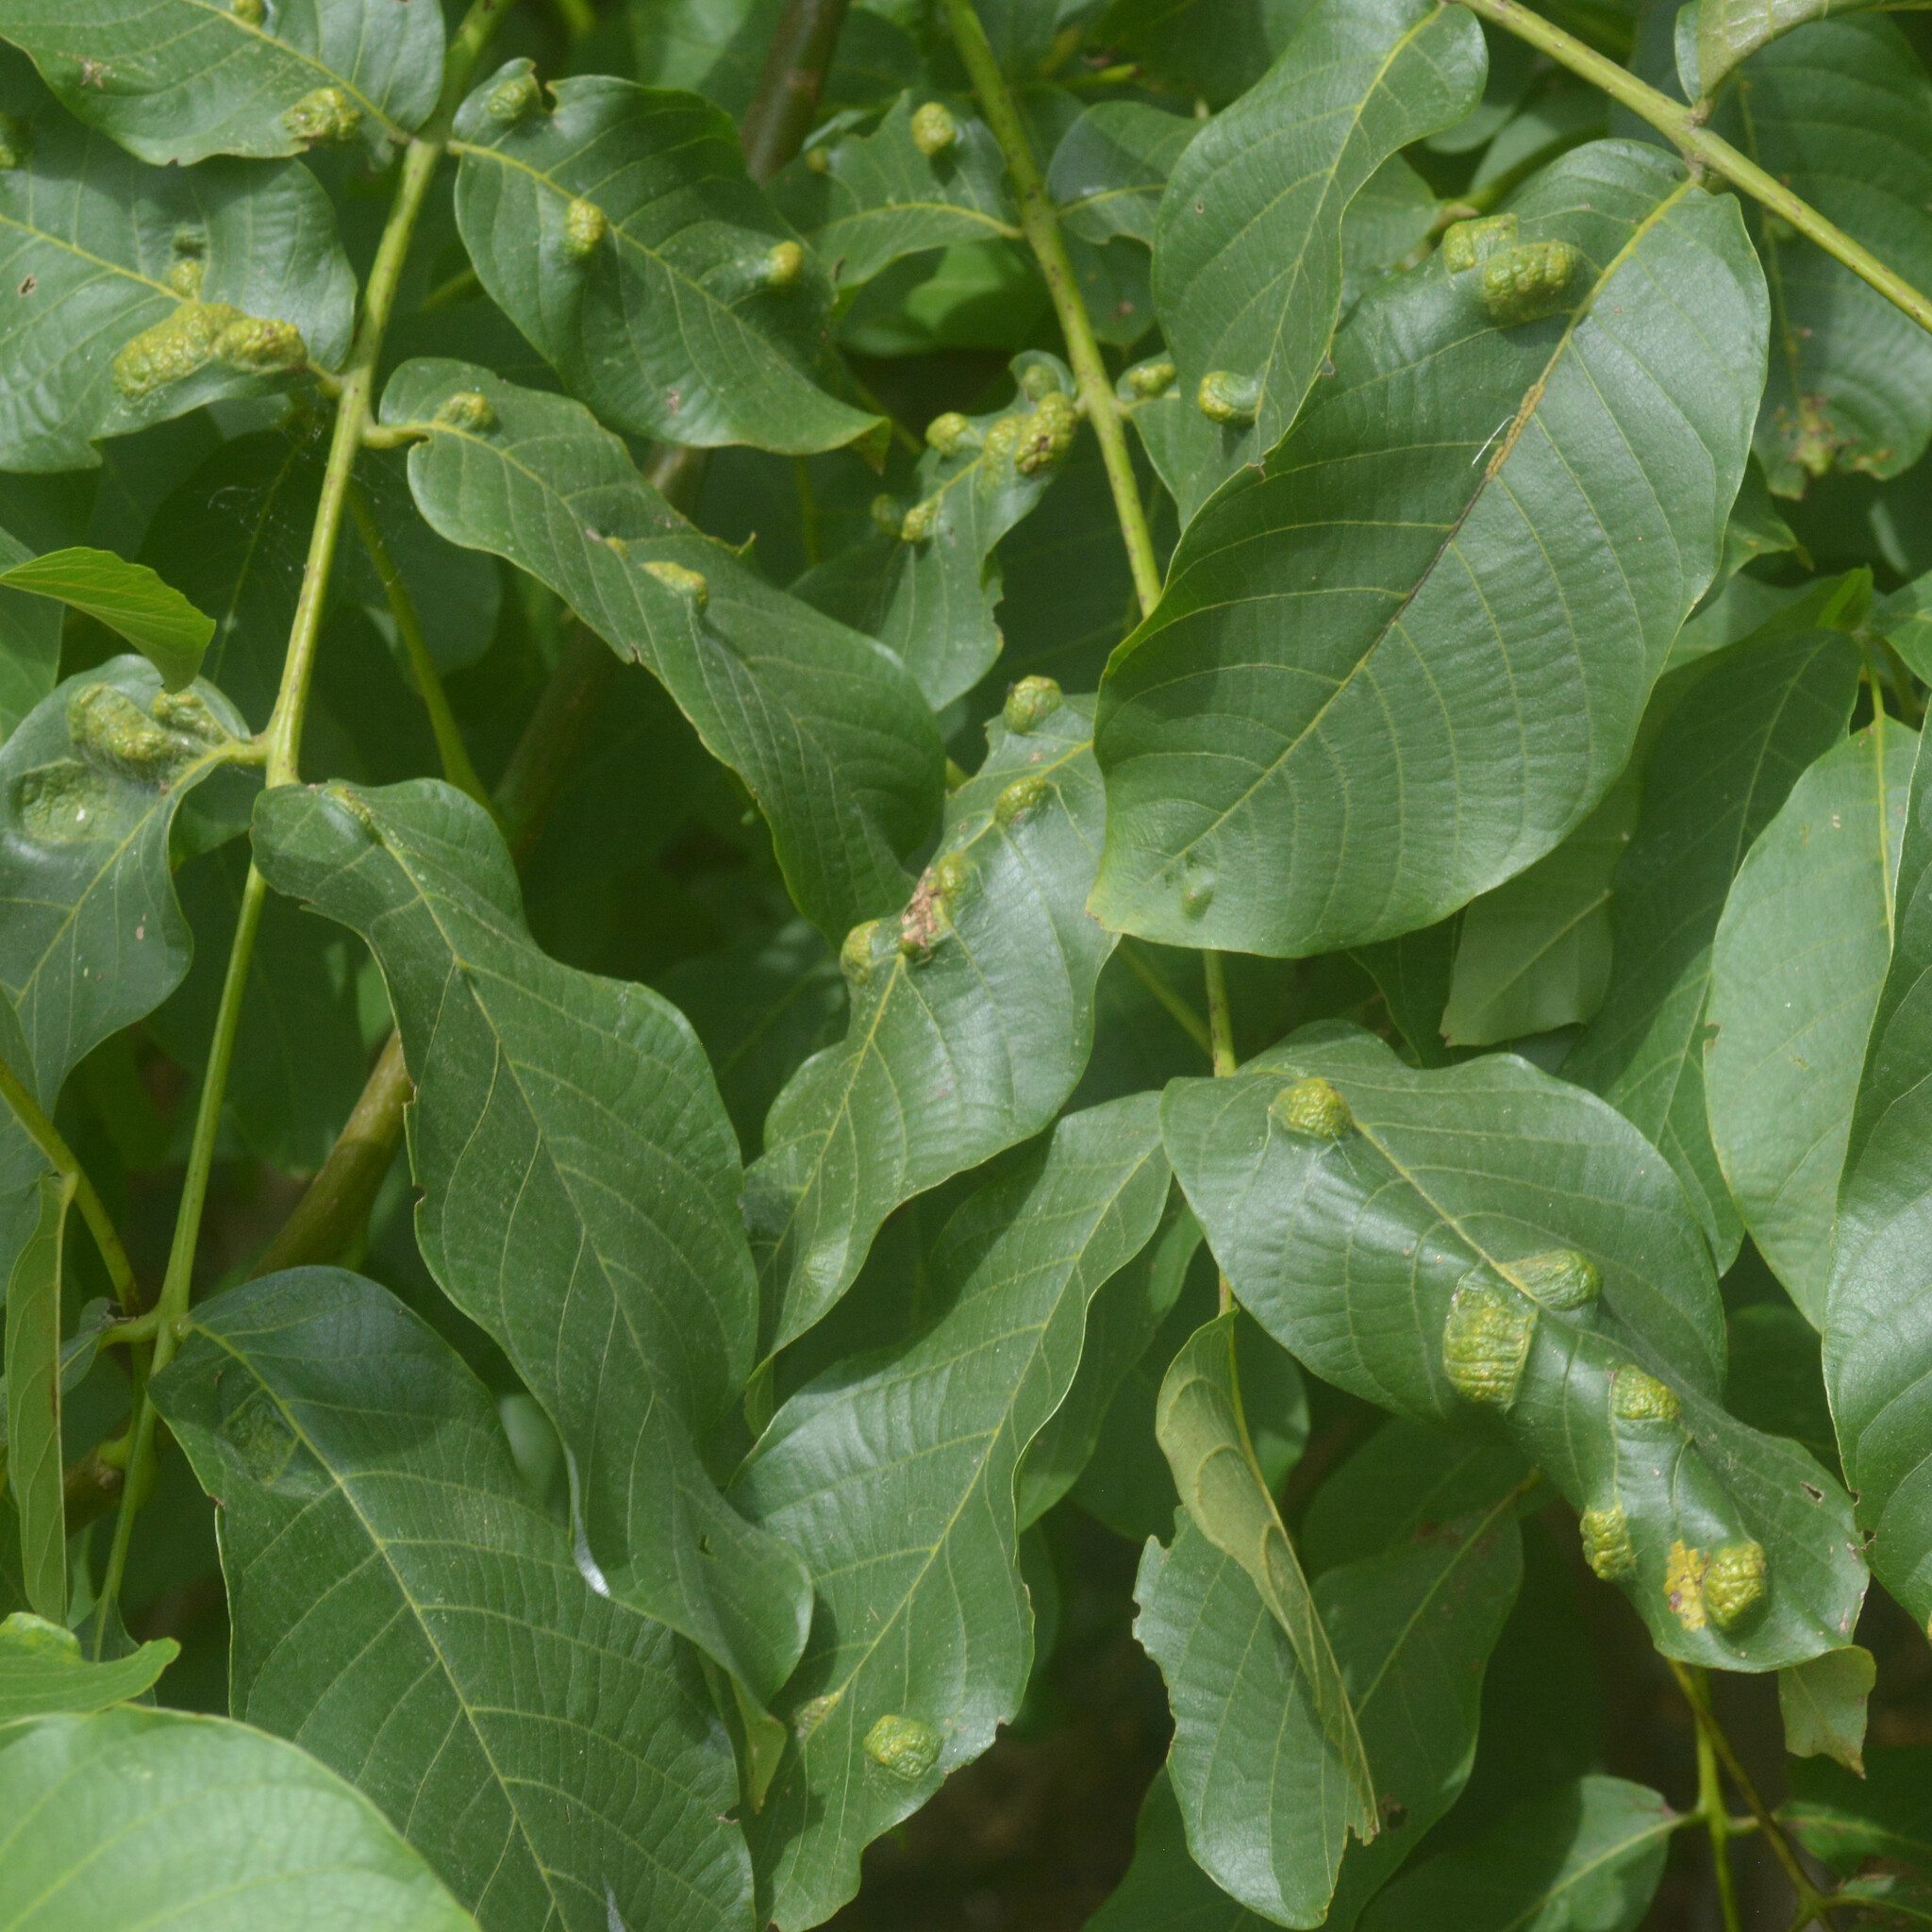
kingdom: Animalia
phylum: Arthropoda
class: Arachnida
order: Trombidiformes
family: Eriophyidae
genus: Aceria
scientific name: Aceria erinea
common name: Persian walnut erineum mite
